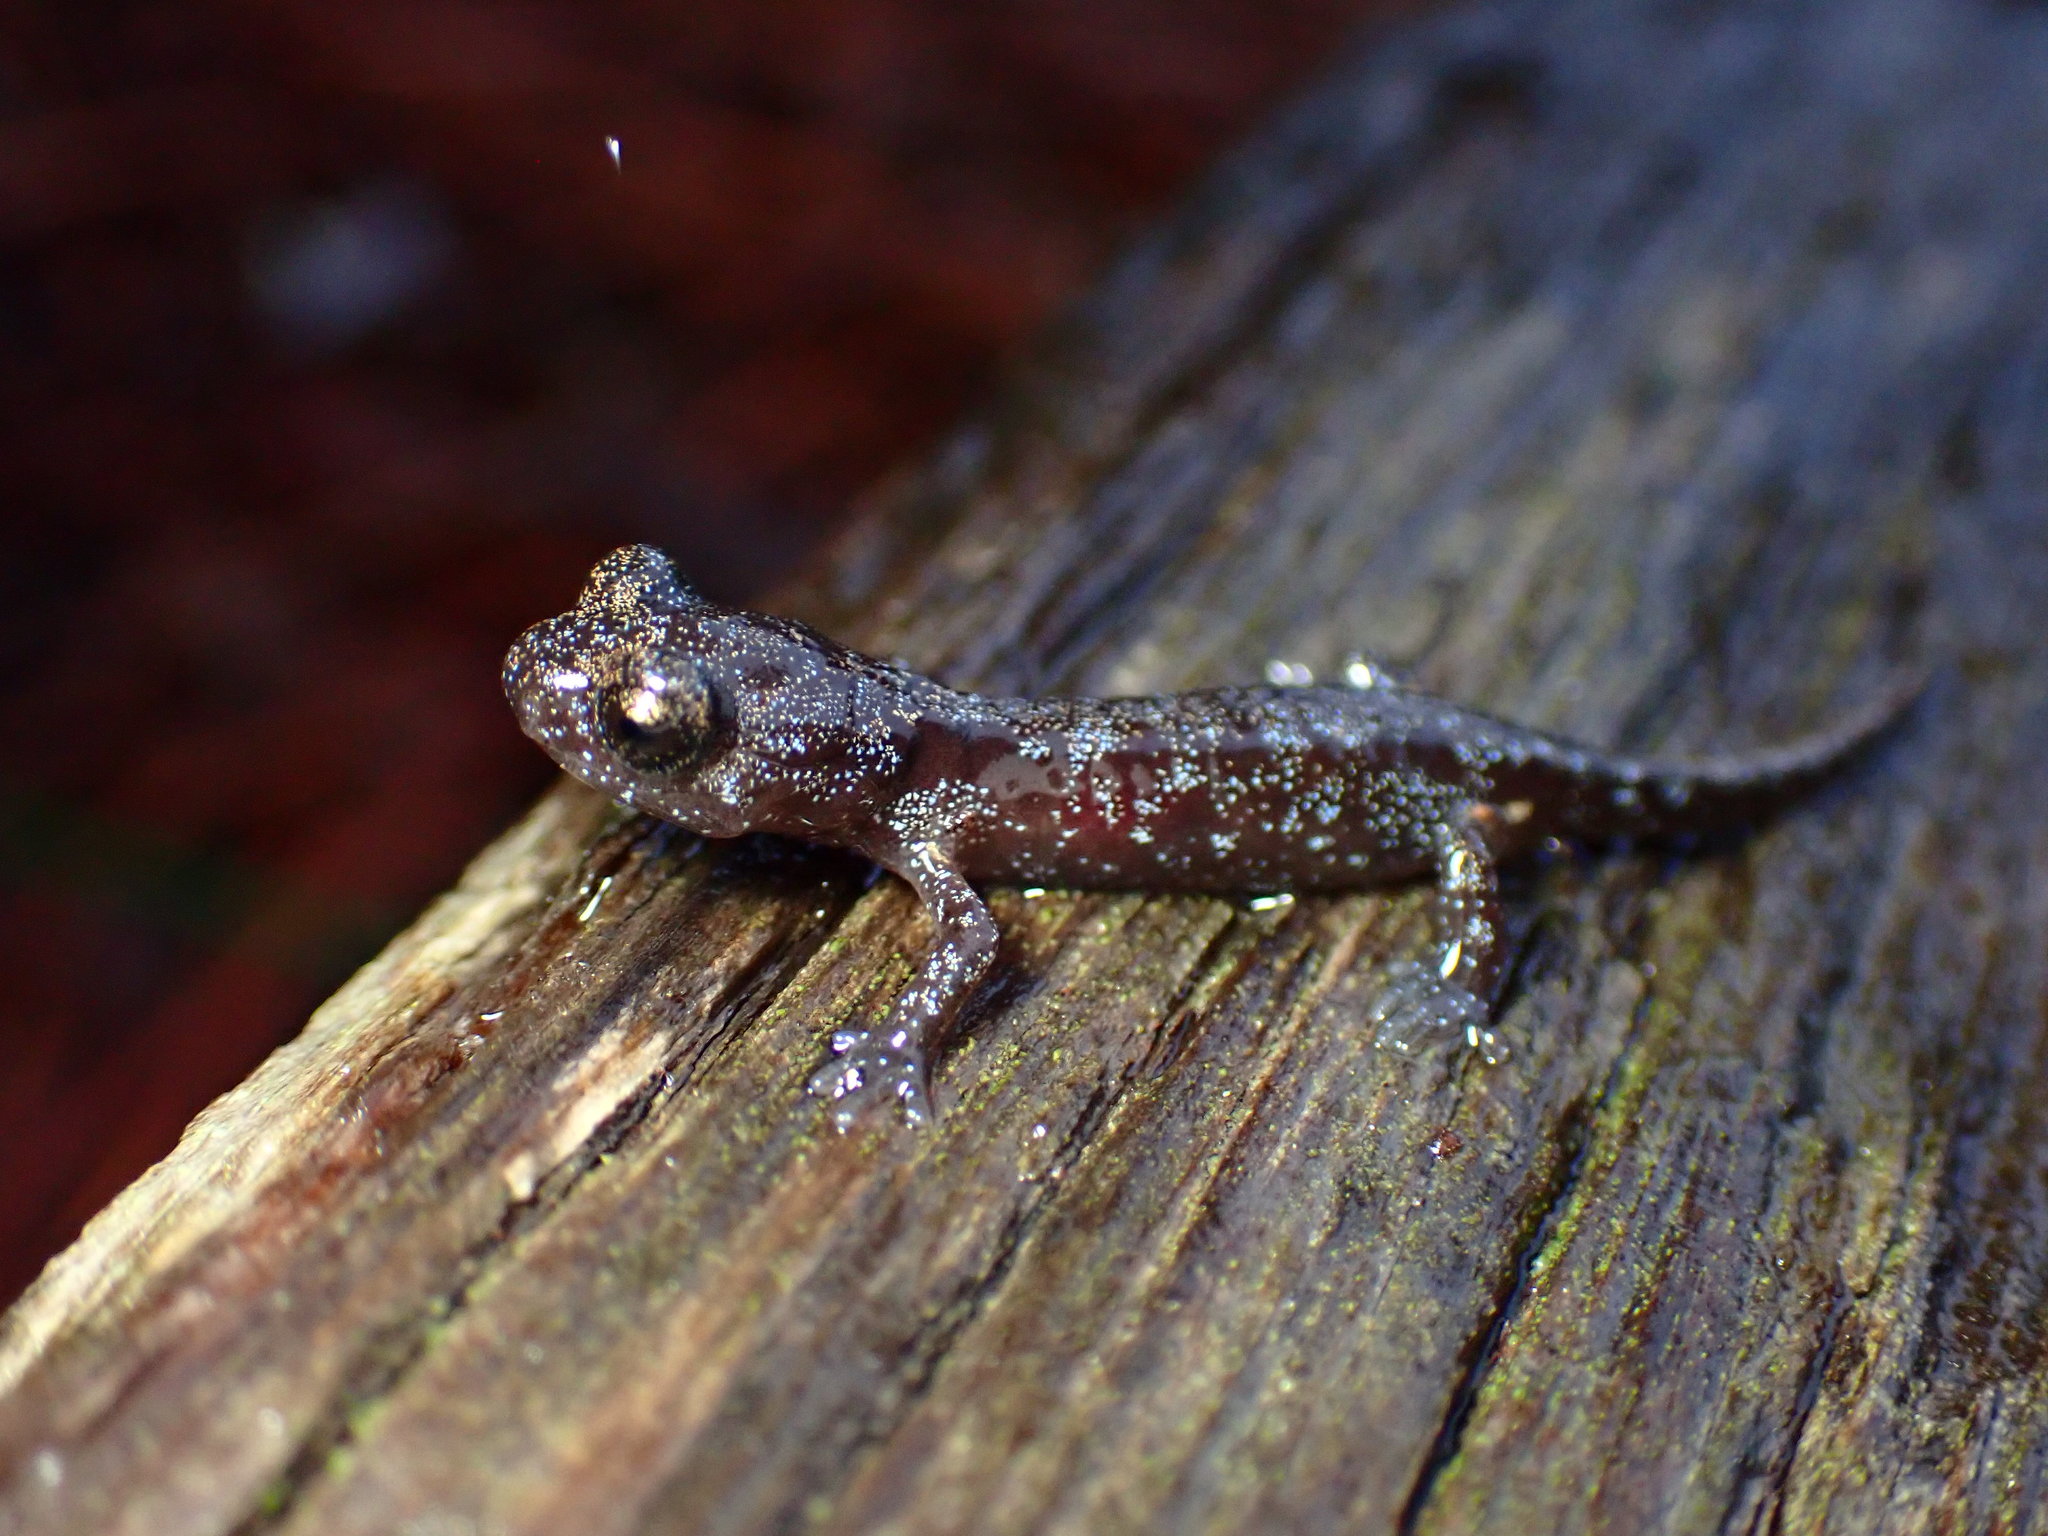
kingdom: Animalia
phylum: Chordata
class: Amphibia
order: Caudata
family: Plethodontidae
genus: Aneides
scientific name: Aneides lugubris
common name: Arboreal salamander
